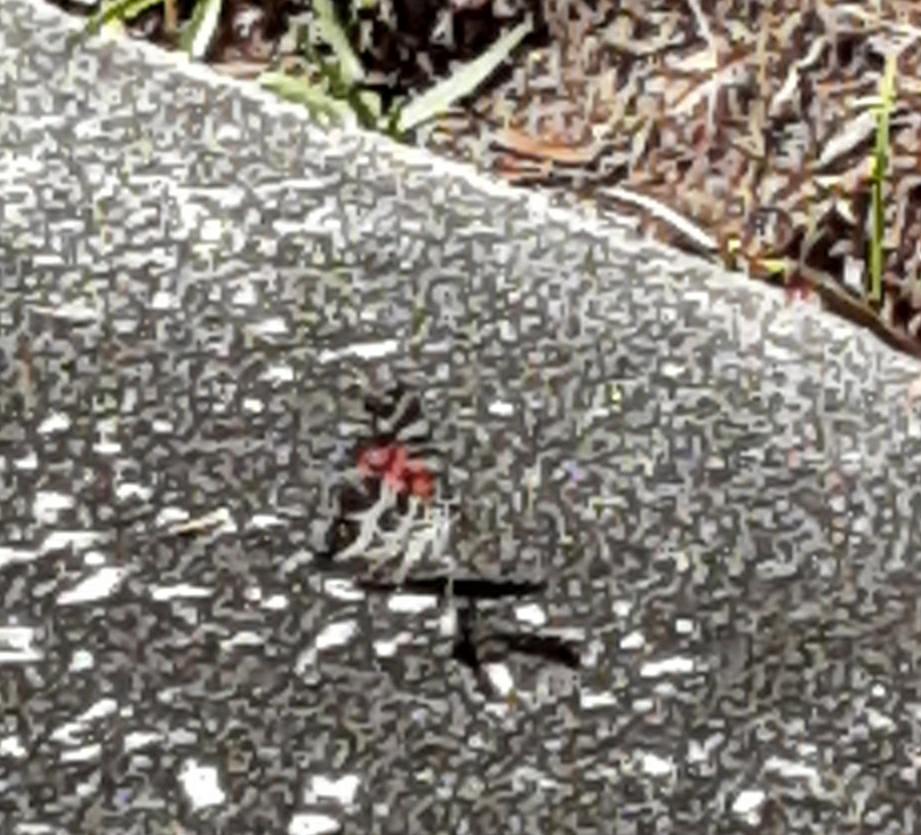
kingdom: Animalia
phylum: Arthropoda
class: Insecta
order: Lepidoptera
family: Nymphalidae
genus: Vanessa
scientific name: Vanessa virginiensis
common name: American lady
